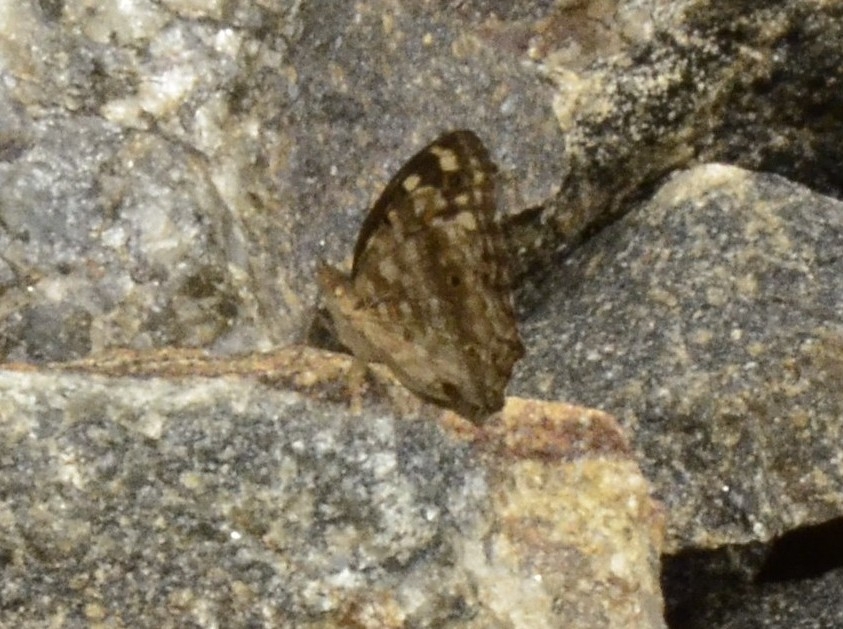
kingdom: Animalia
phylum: Arthropoda
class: Insecta
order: Lepidoptera
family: Nymphalidae
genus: Junonia
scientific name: Junonia lemonias
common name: Lemon pansy
